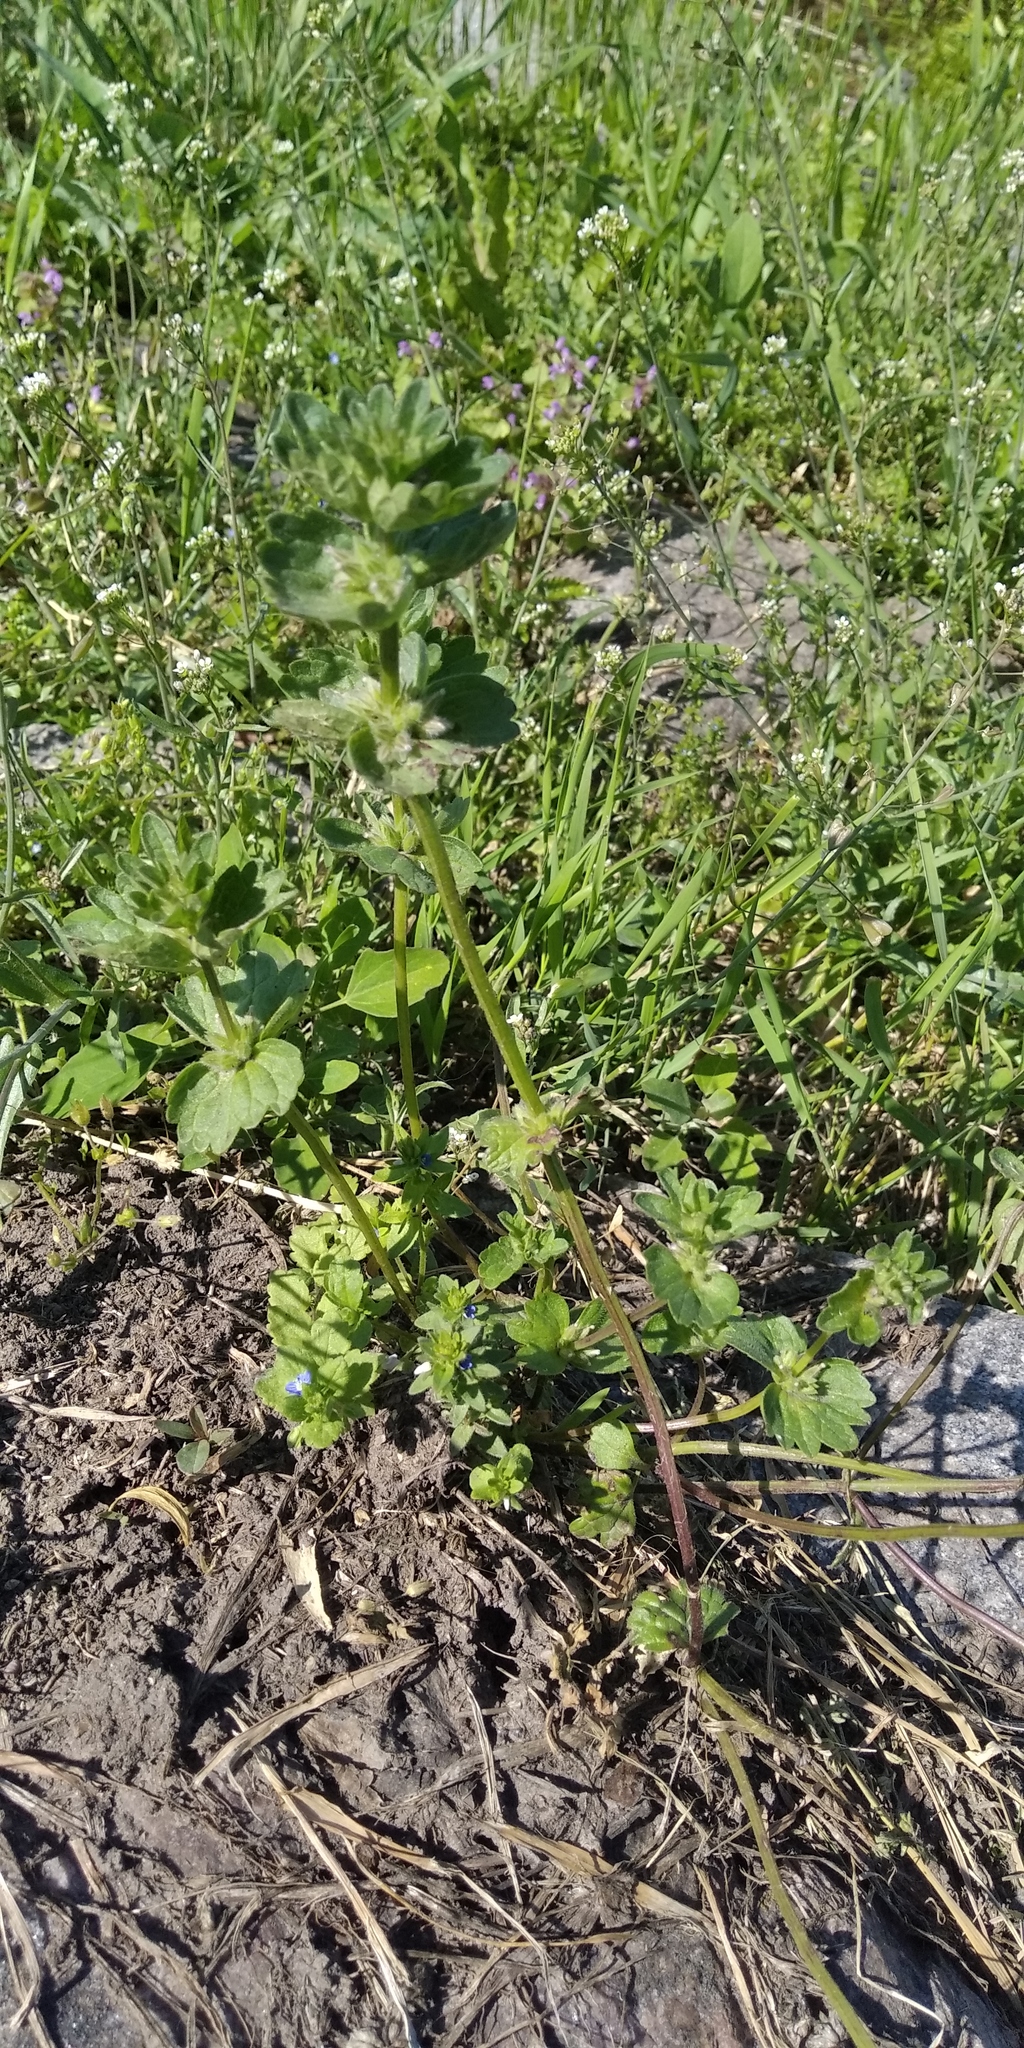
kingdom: Plantae
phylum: Tracheophyta
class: Magnoliopsida
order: Lamiales
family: Lamiaceae
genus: Lamium
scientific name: Lamium amplexicaule
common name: Henbit dead-nettle
